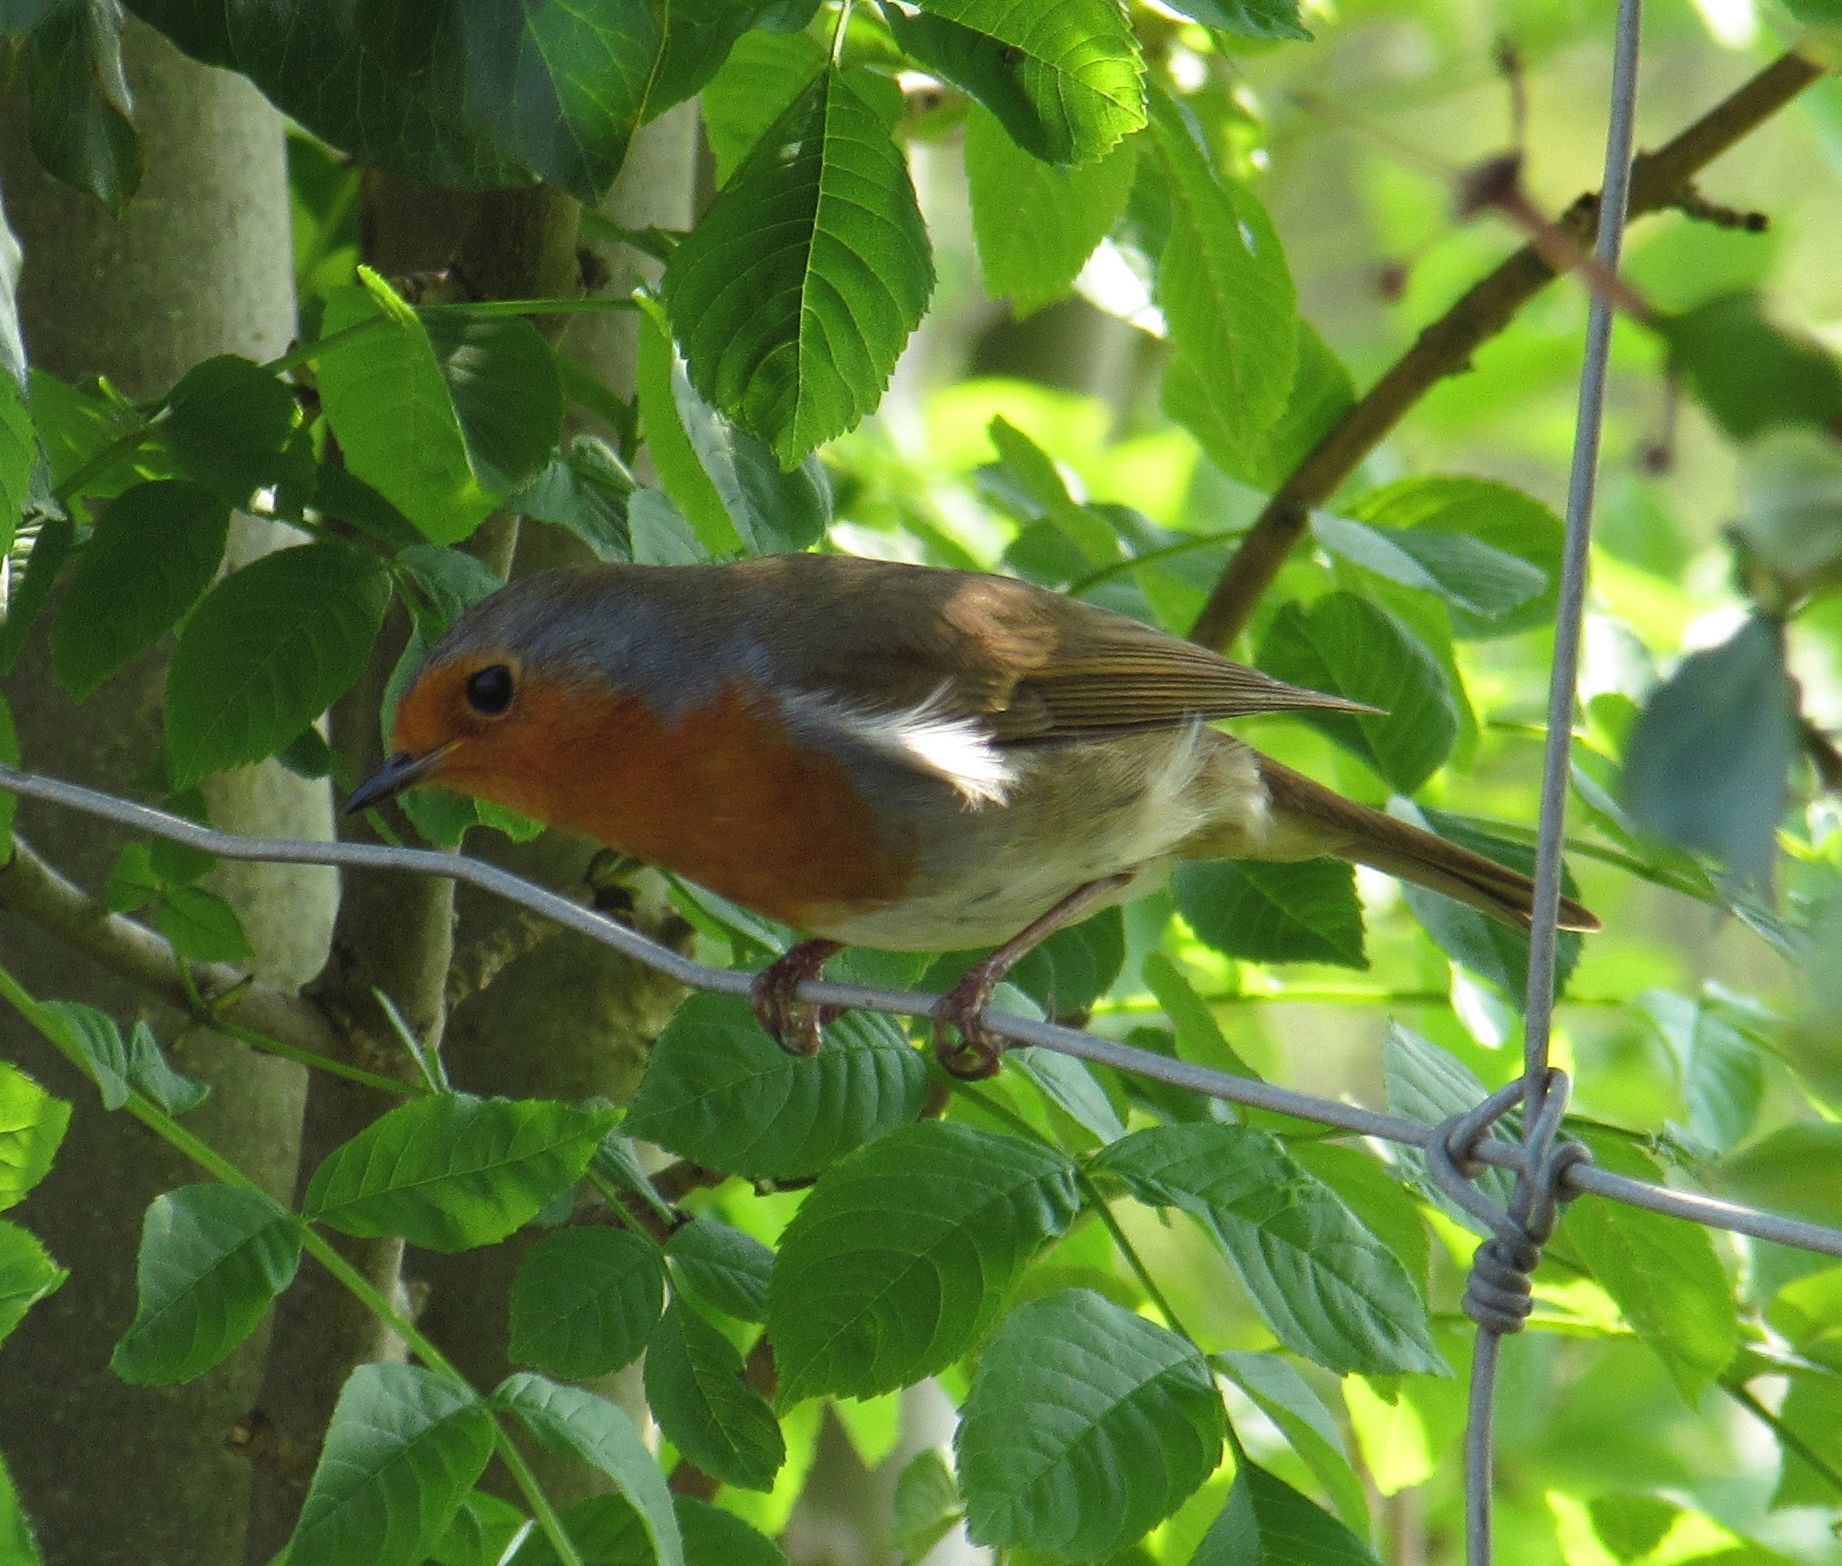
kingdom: Animalia
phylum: Chordata
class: Aves
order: Passeriformes
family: Muscicapidae
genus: Erithacus
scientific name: Erithacus rubecula
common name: European robin
